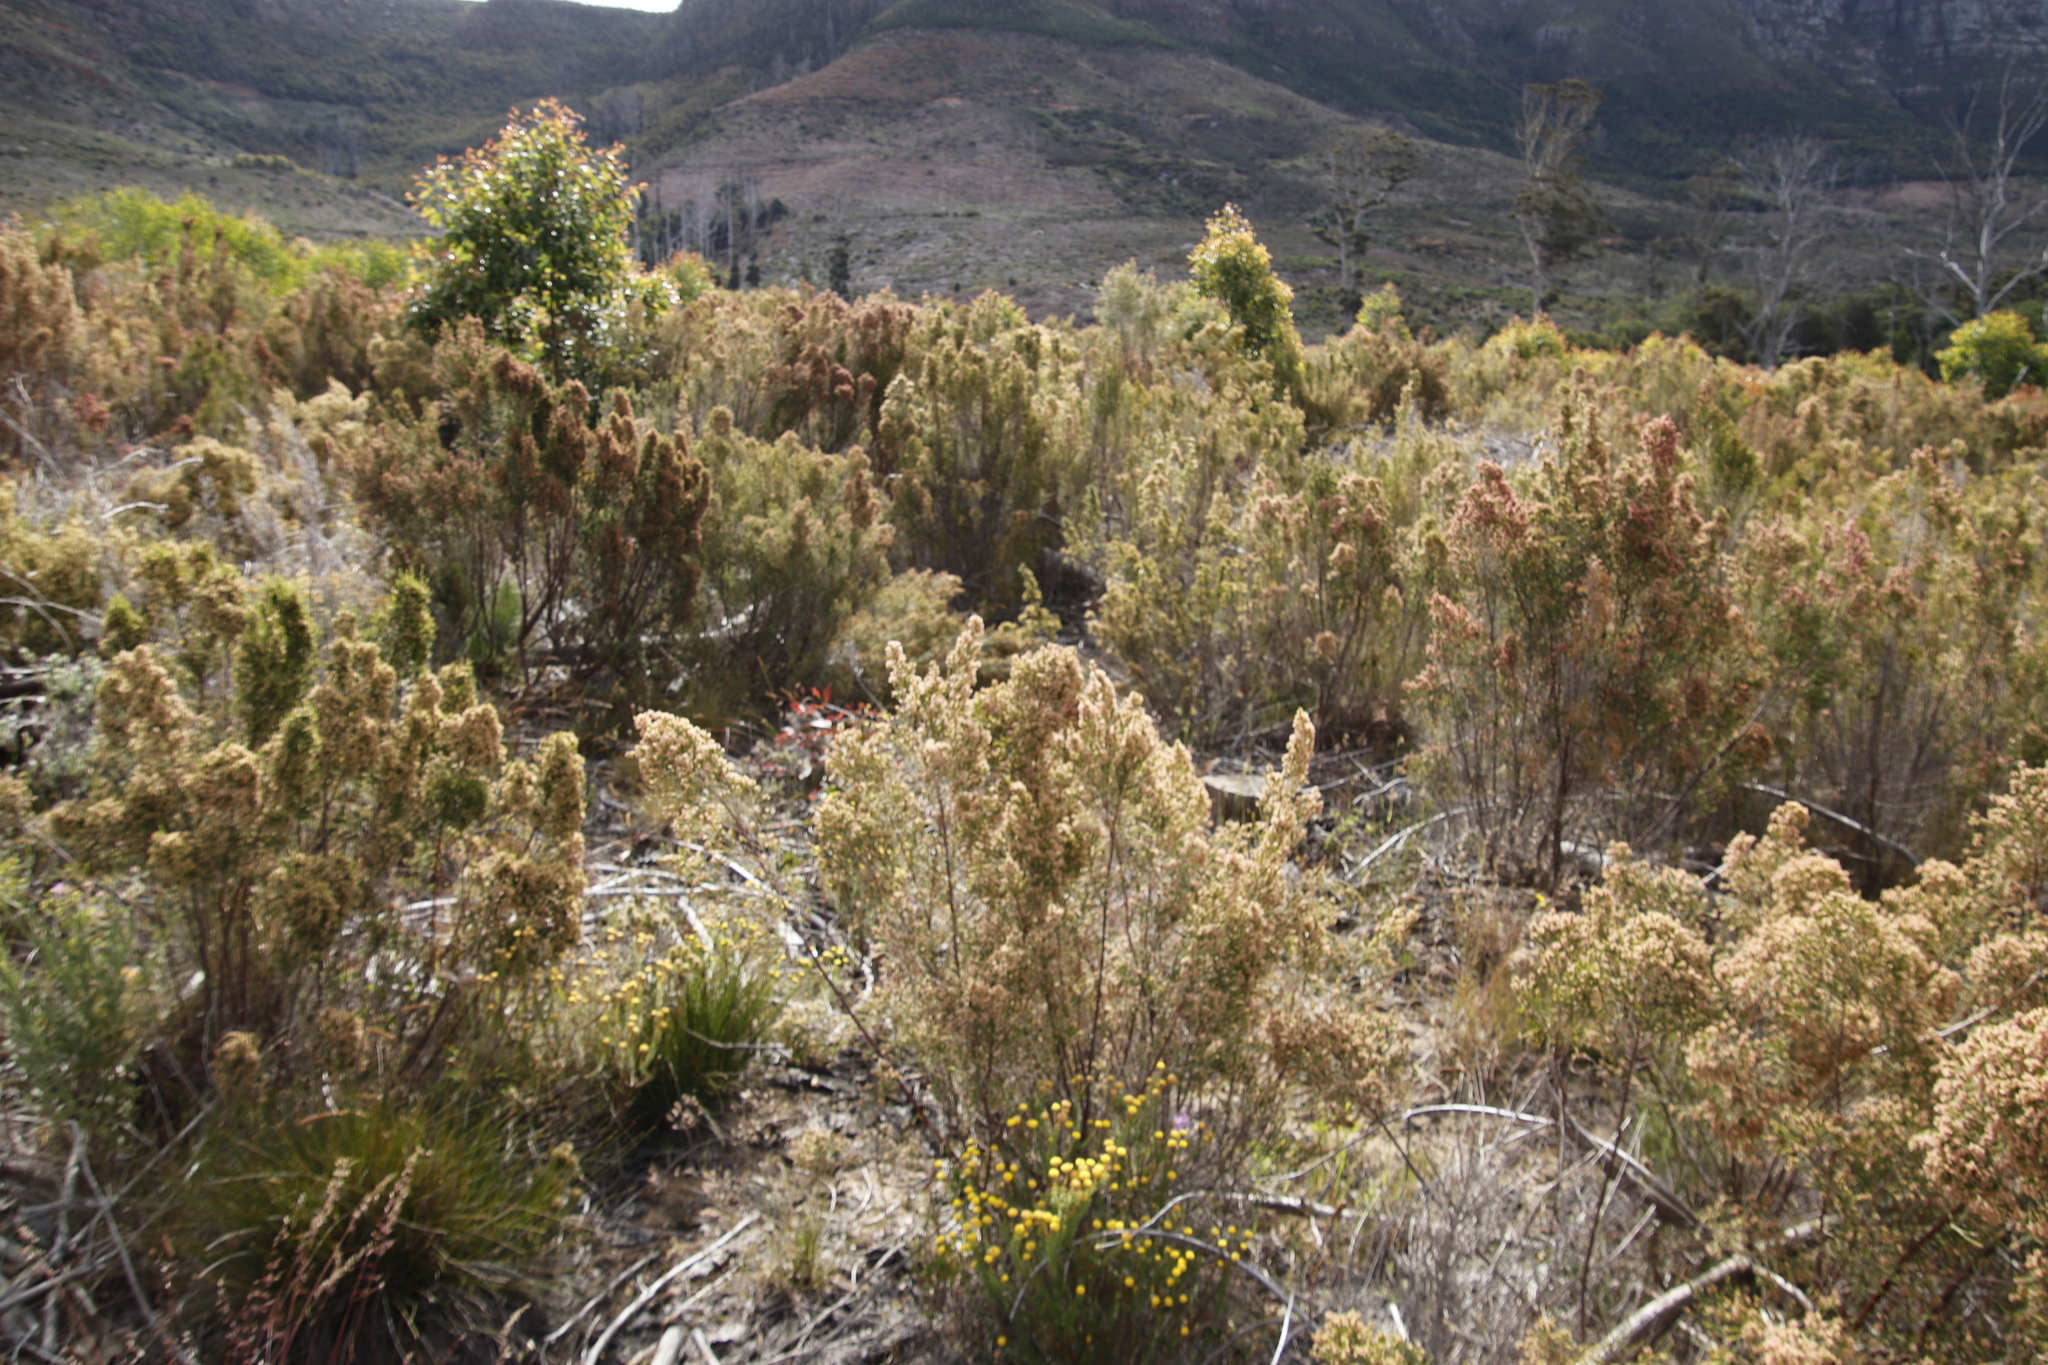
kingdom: Plantae
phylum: Tracheophyta
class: Magnoliopsida
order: Malvales
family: Thymelaeaceae
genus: Passerina
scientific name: Passerina corymbosa
